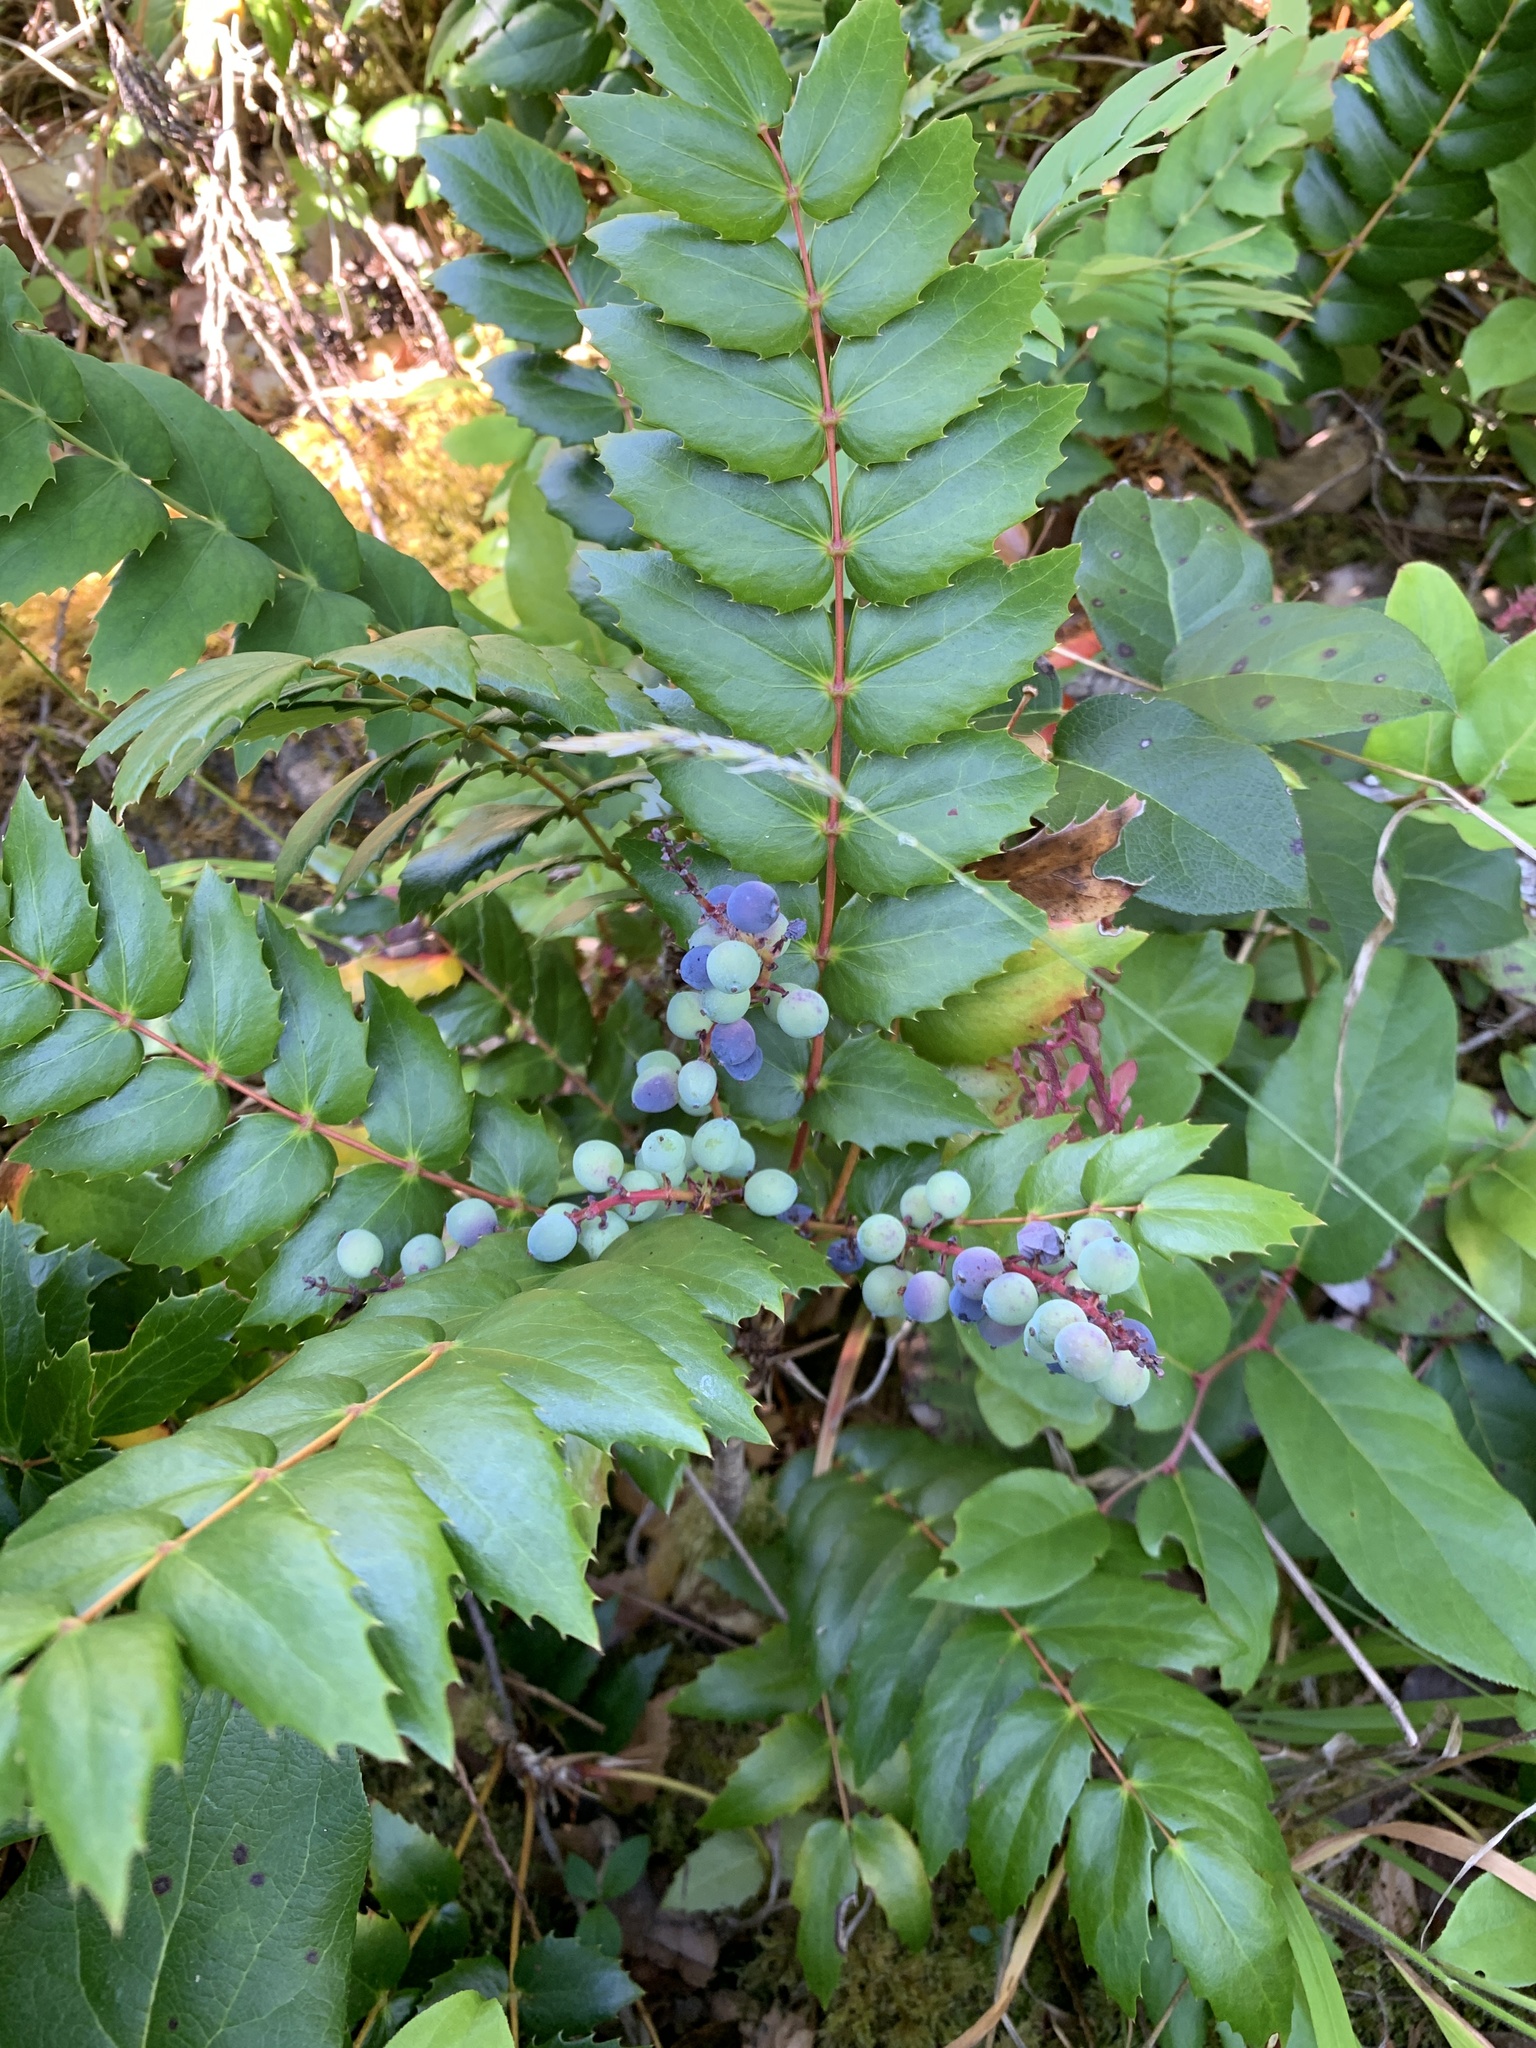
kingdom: Plantae
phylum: Tracheophyta
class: Magnoliopsida
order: Ranunculales
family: Berberidaceae
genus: Mahonia
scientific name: Mahonia nervosa
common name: Cascade oregon-grape
